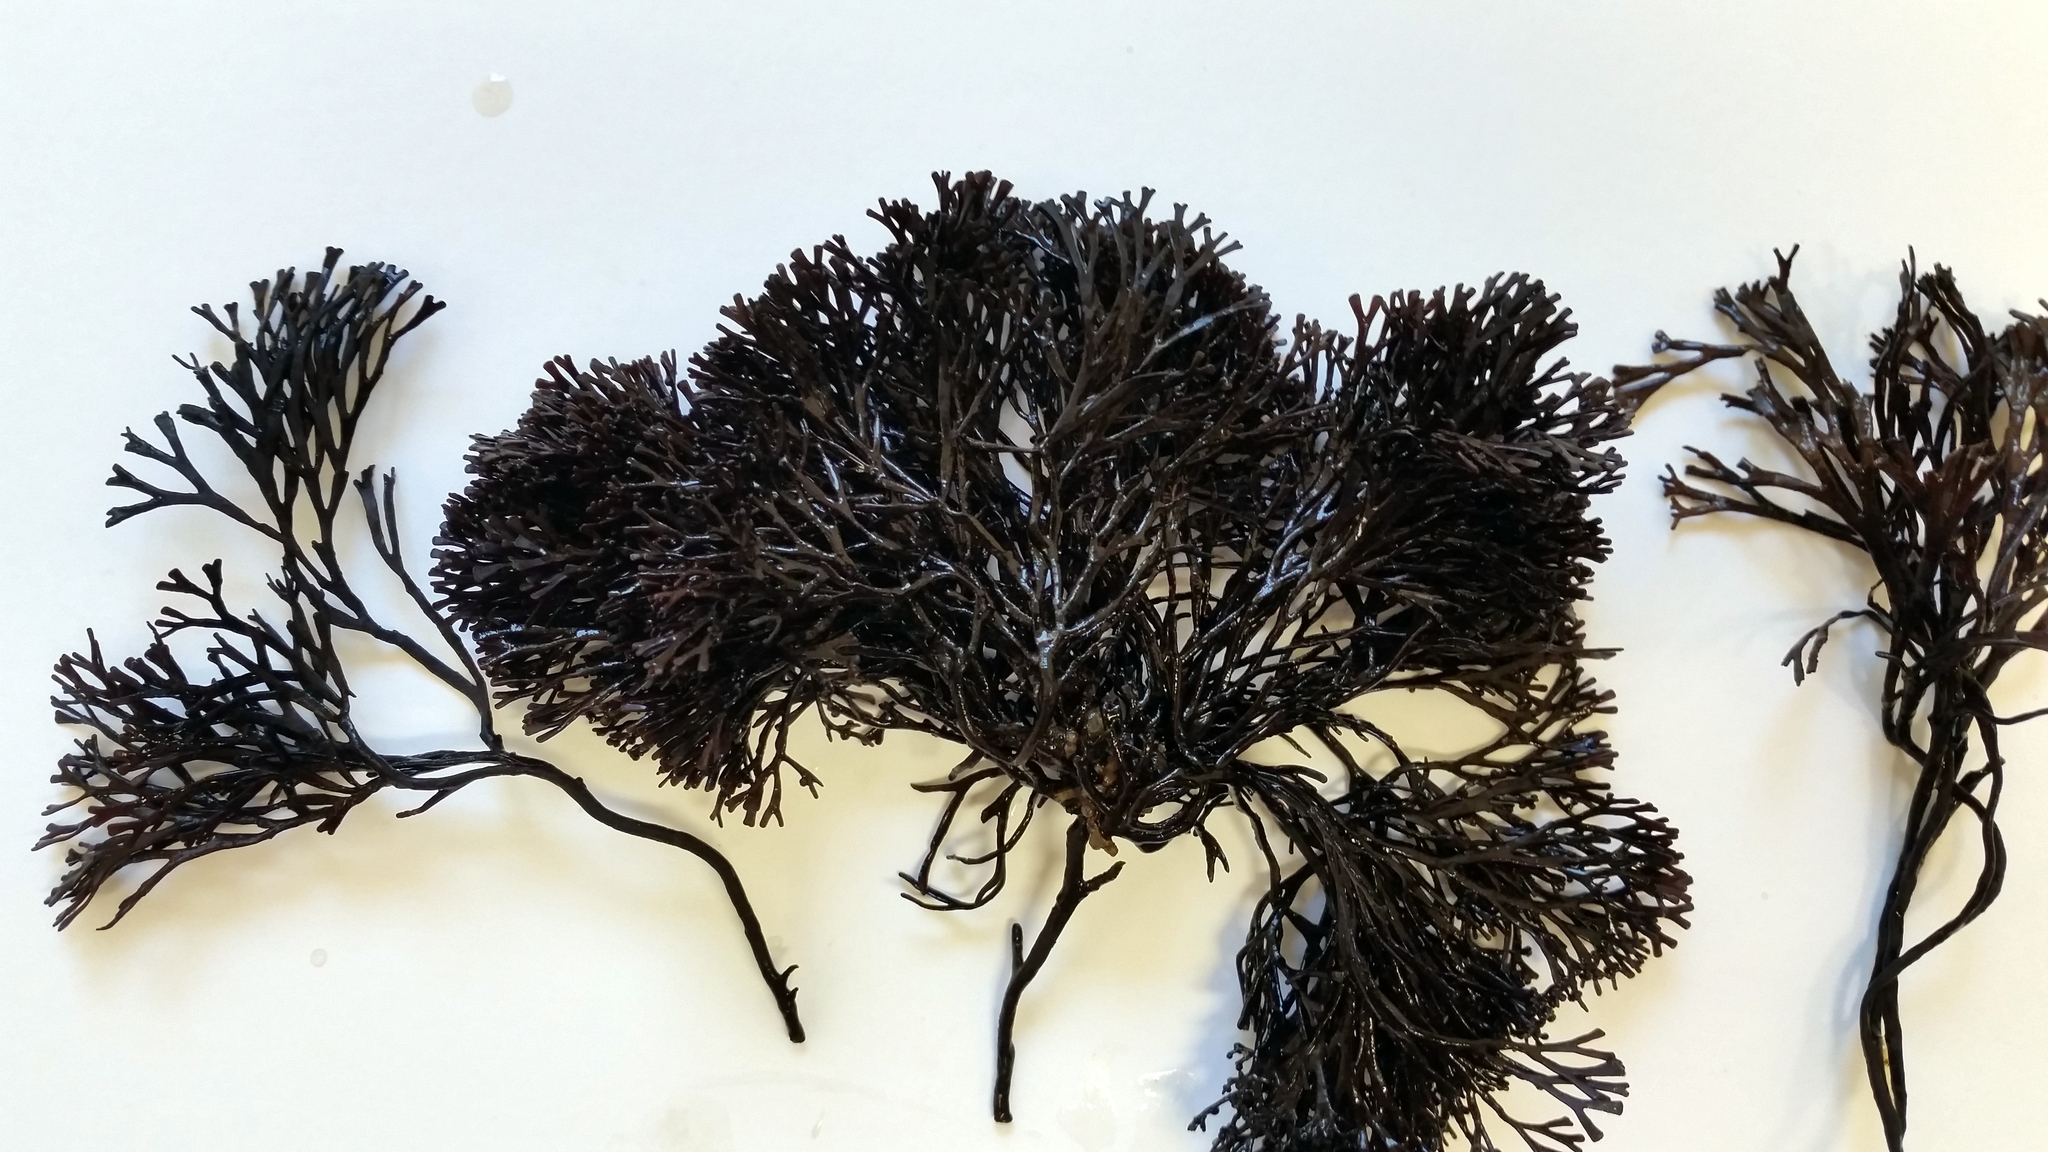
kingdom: Plantae
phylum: Rhodophyta
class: Florideophyceae
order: Gracilariales
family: Gracilariaceae
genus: Melanthalia
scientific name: Melanthalia abscissa
